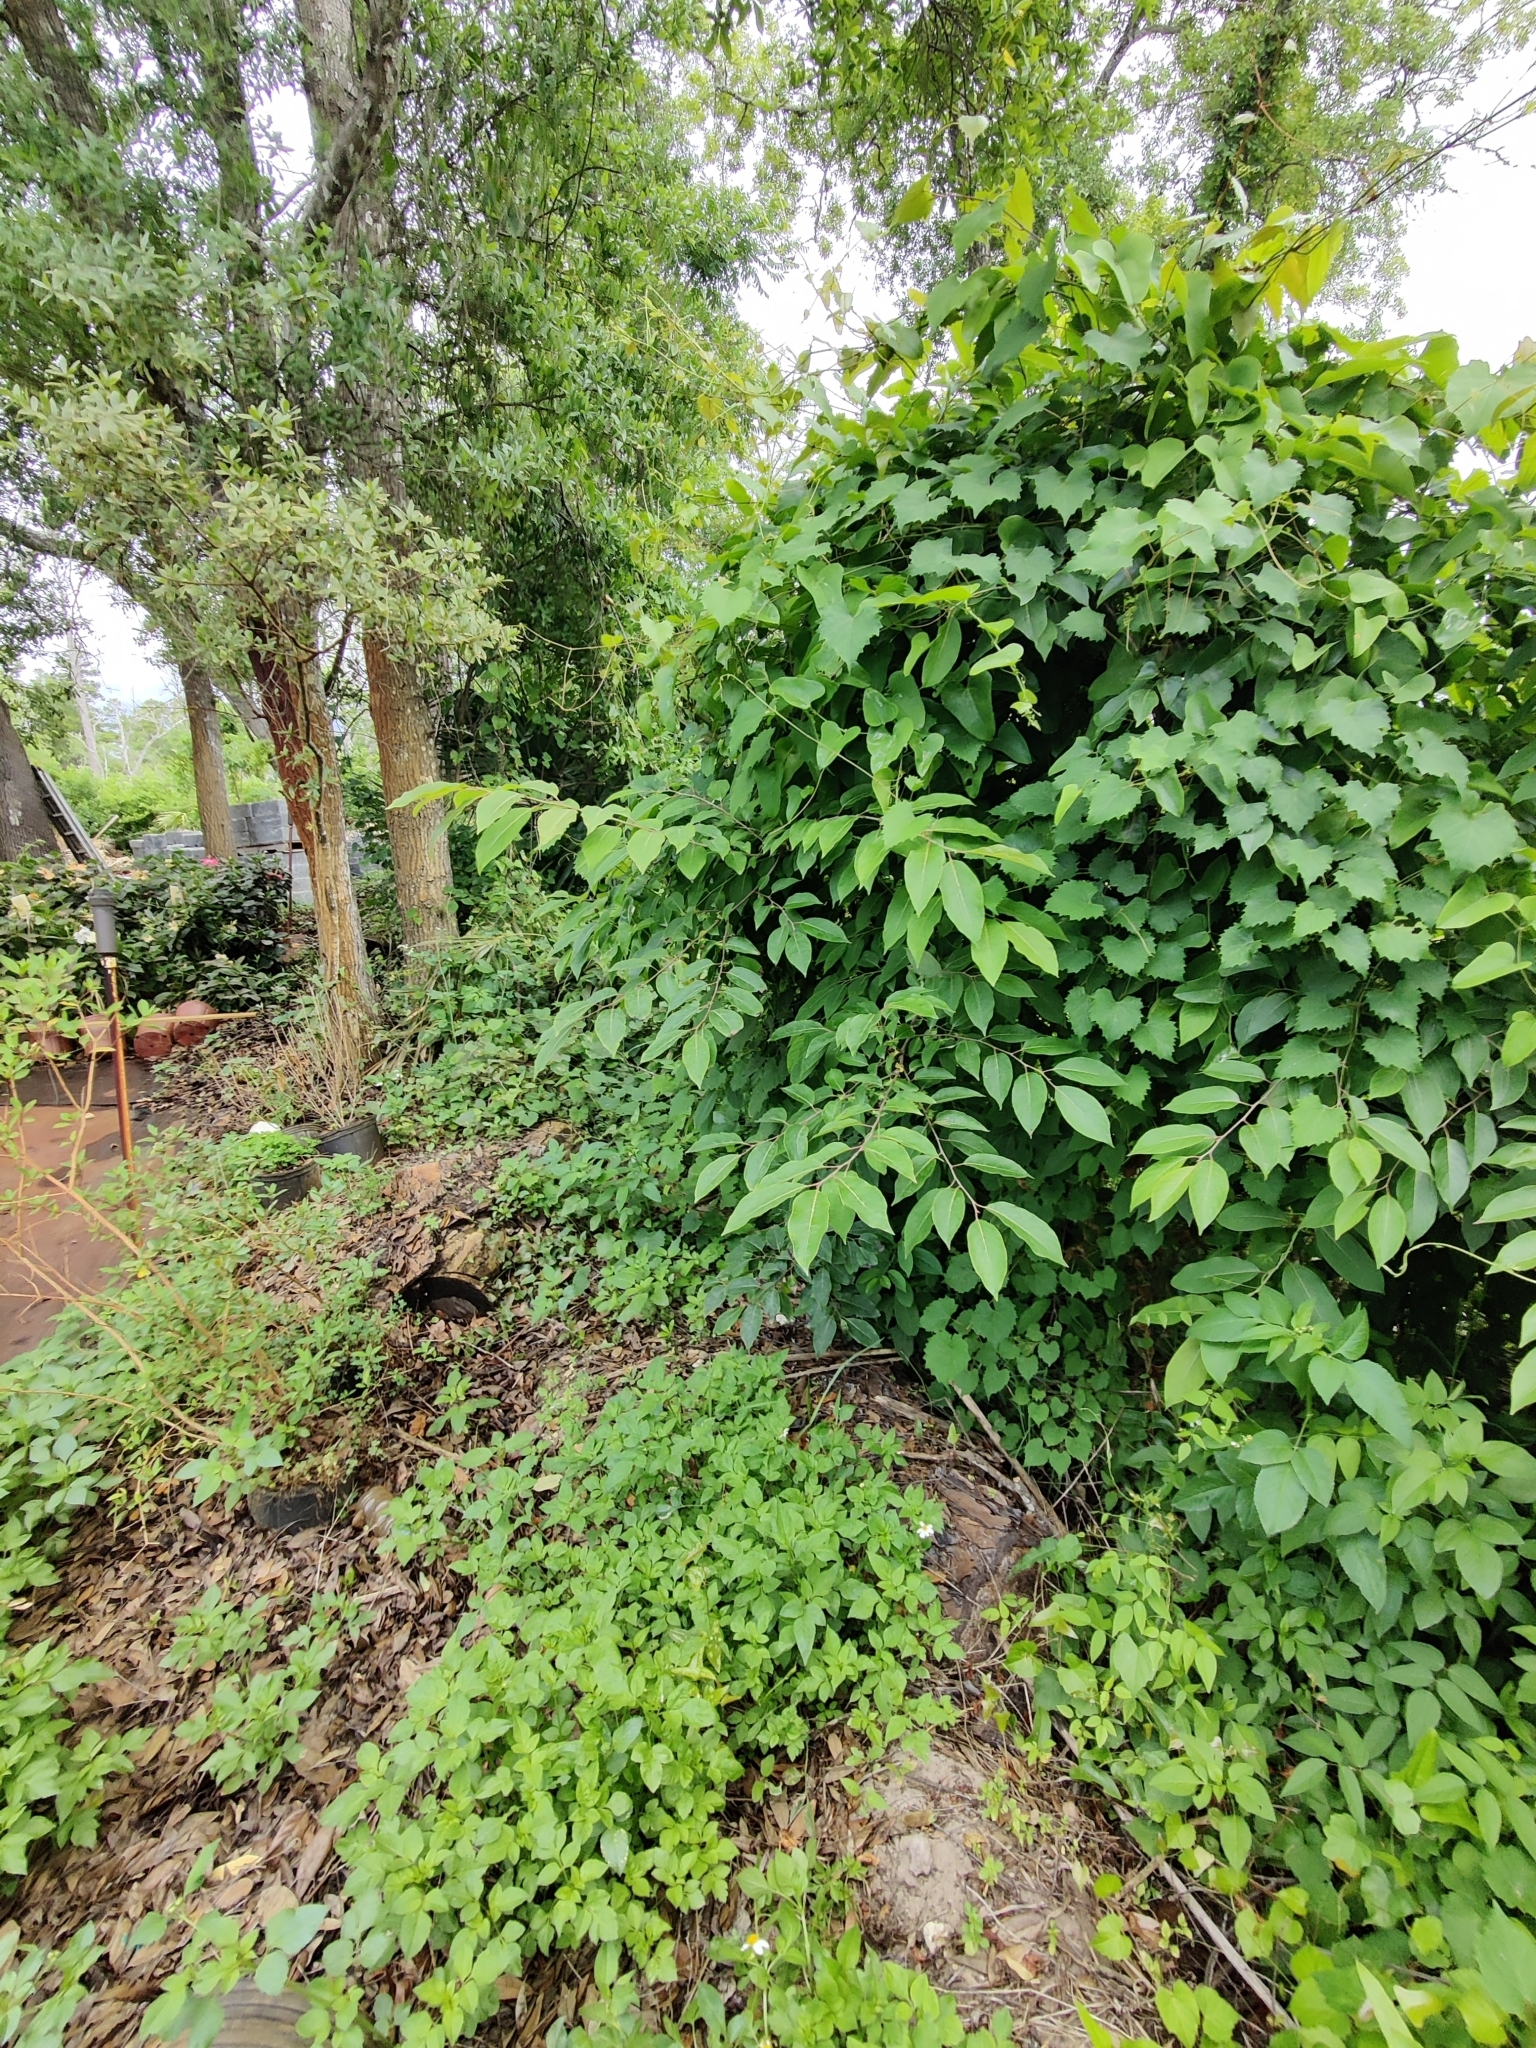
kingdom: Plantae
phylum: Tracheophyta
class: Magnoliopsida
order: Ericales
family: Ebenaceae
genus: Diospyros
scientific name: Diospyros virginiana
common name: Persimmon
